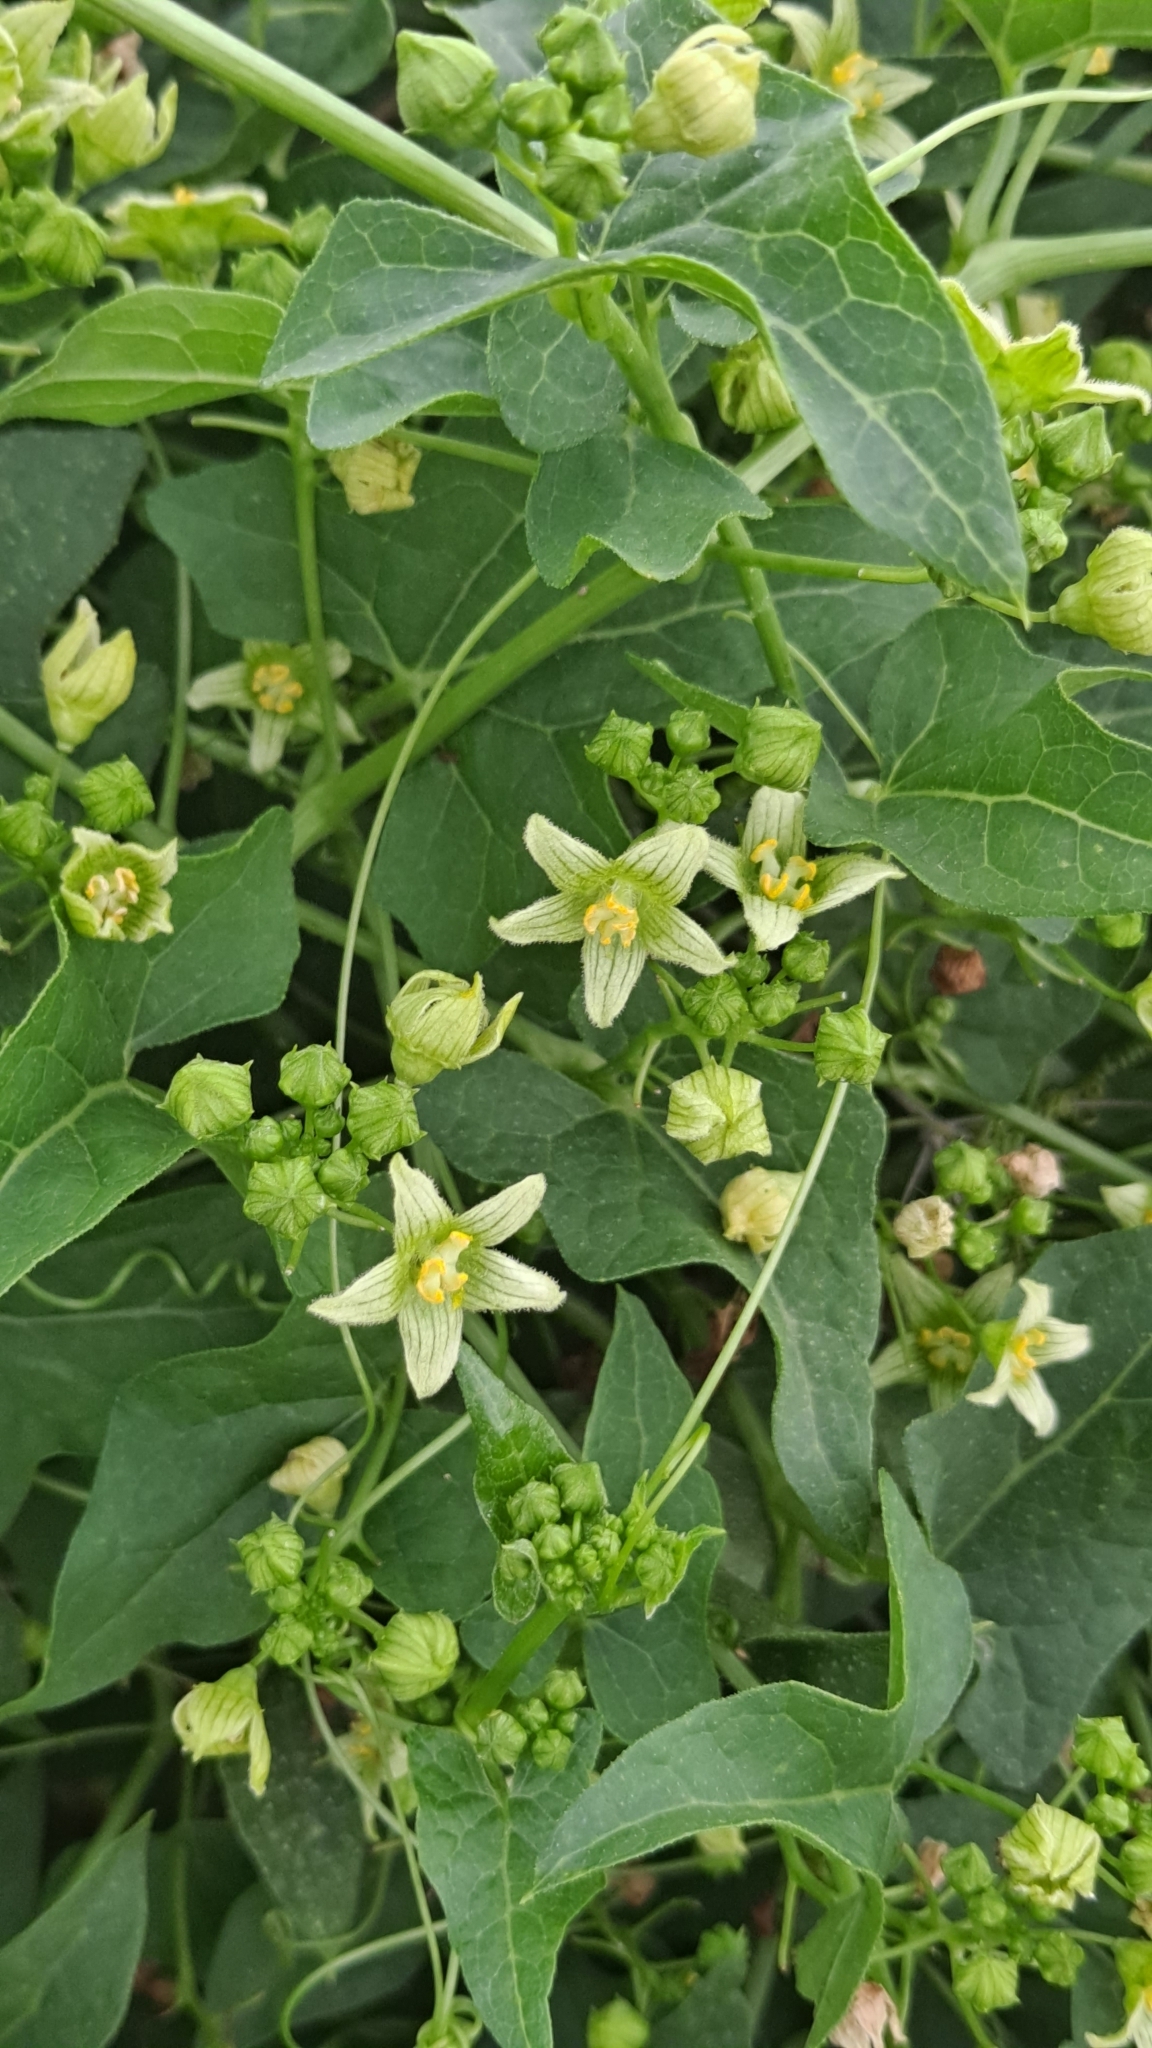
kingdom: Plantae
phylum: Tracheophyta
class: Magnoliopsida
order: Cucurbitales
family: Cucurbitaceae
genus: Bryonia
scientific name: Bryonia cretica
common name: Cretan bryony
